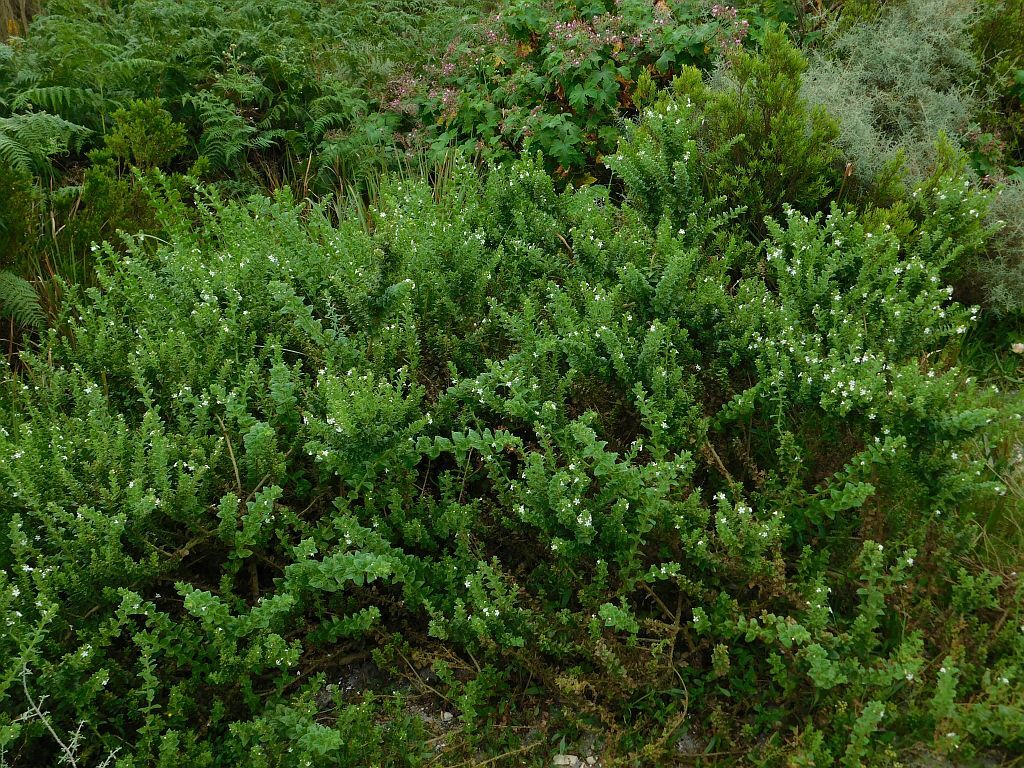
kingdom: Plantae
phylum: Tracheophyta
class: Magnoliopsida
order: Lamiales
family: Scrophulariaceae
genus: Oftia
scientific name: Oftia africana
